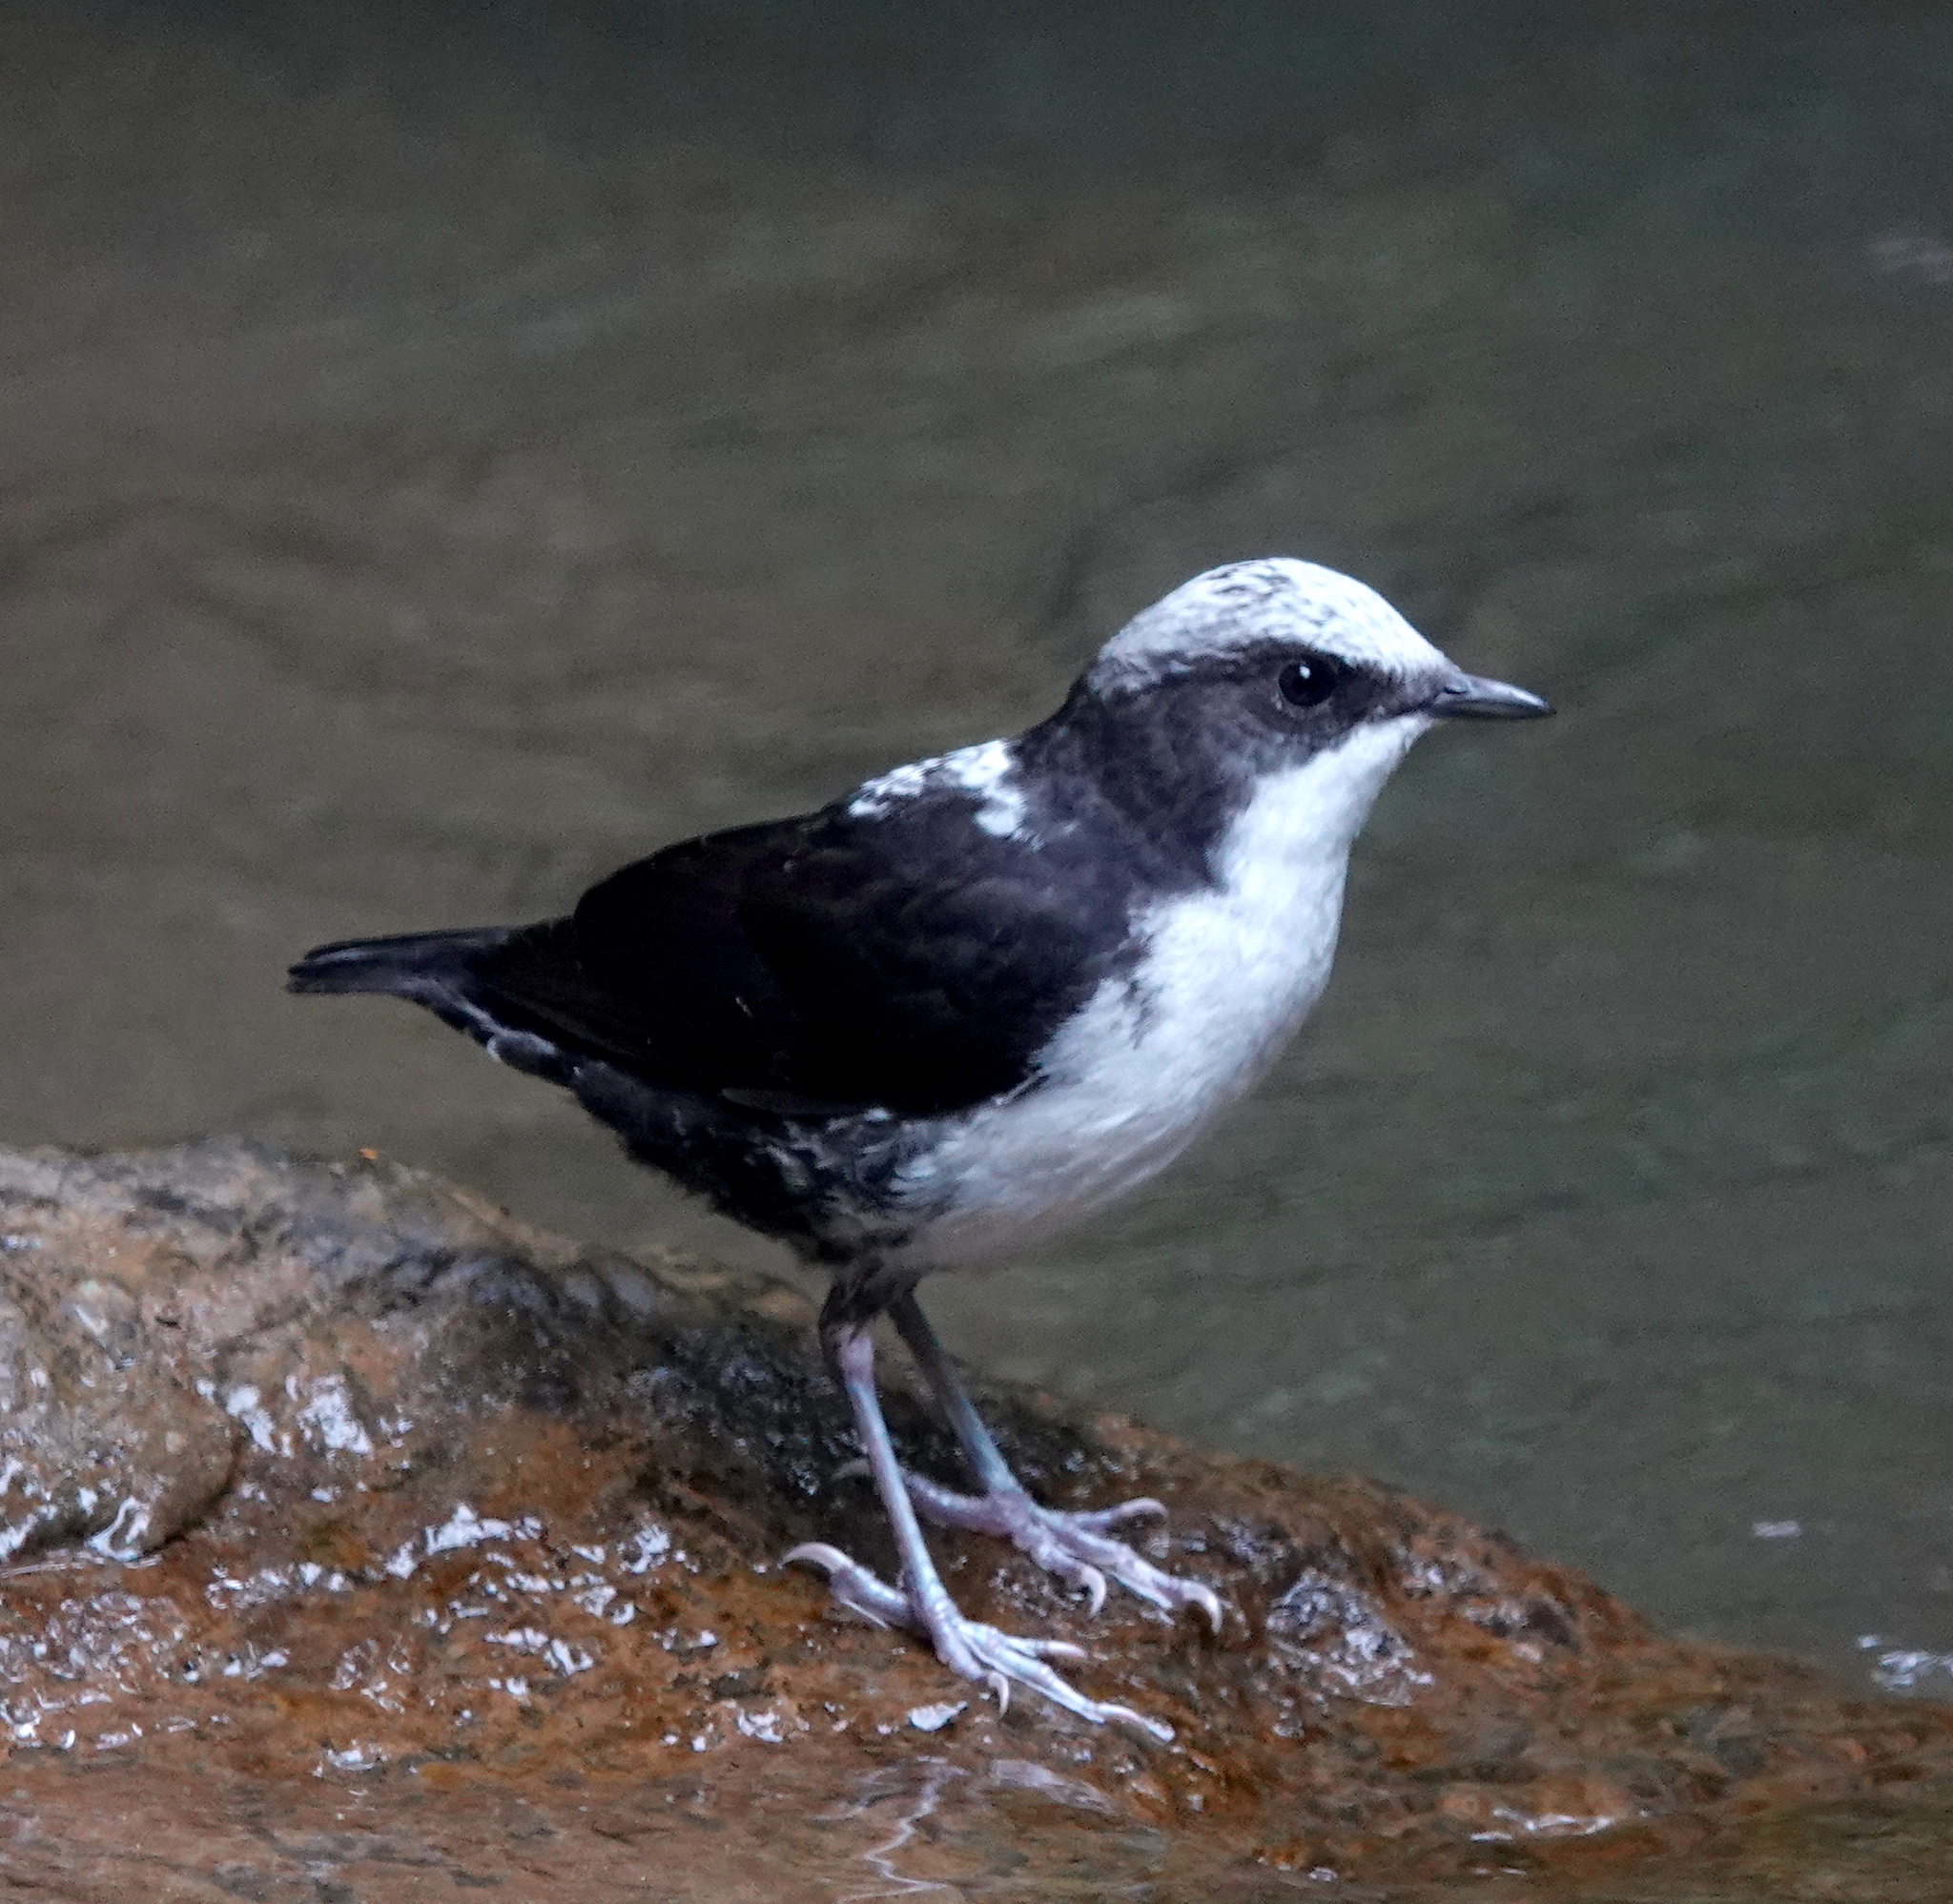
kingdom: Animalia
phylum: Chordata
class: Aves
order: Passeriformes
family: Cinclidae
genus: Cinclus
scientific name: Cinclus leucocephalus
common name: White-capped dipper
